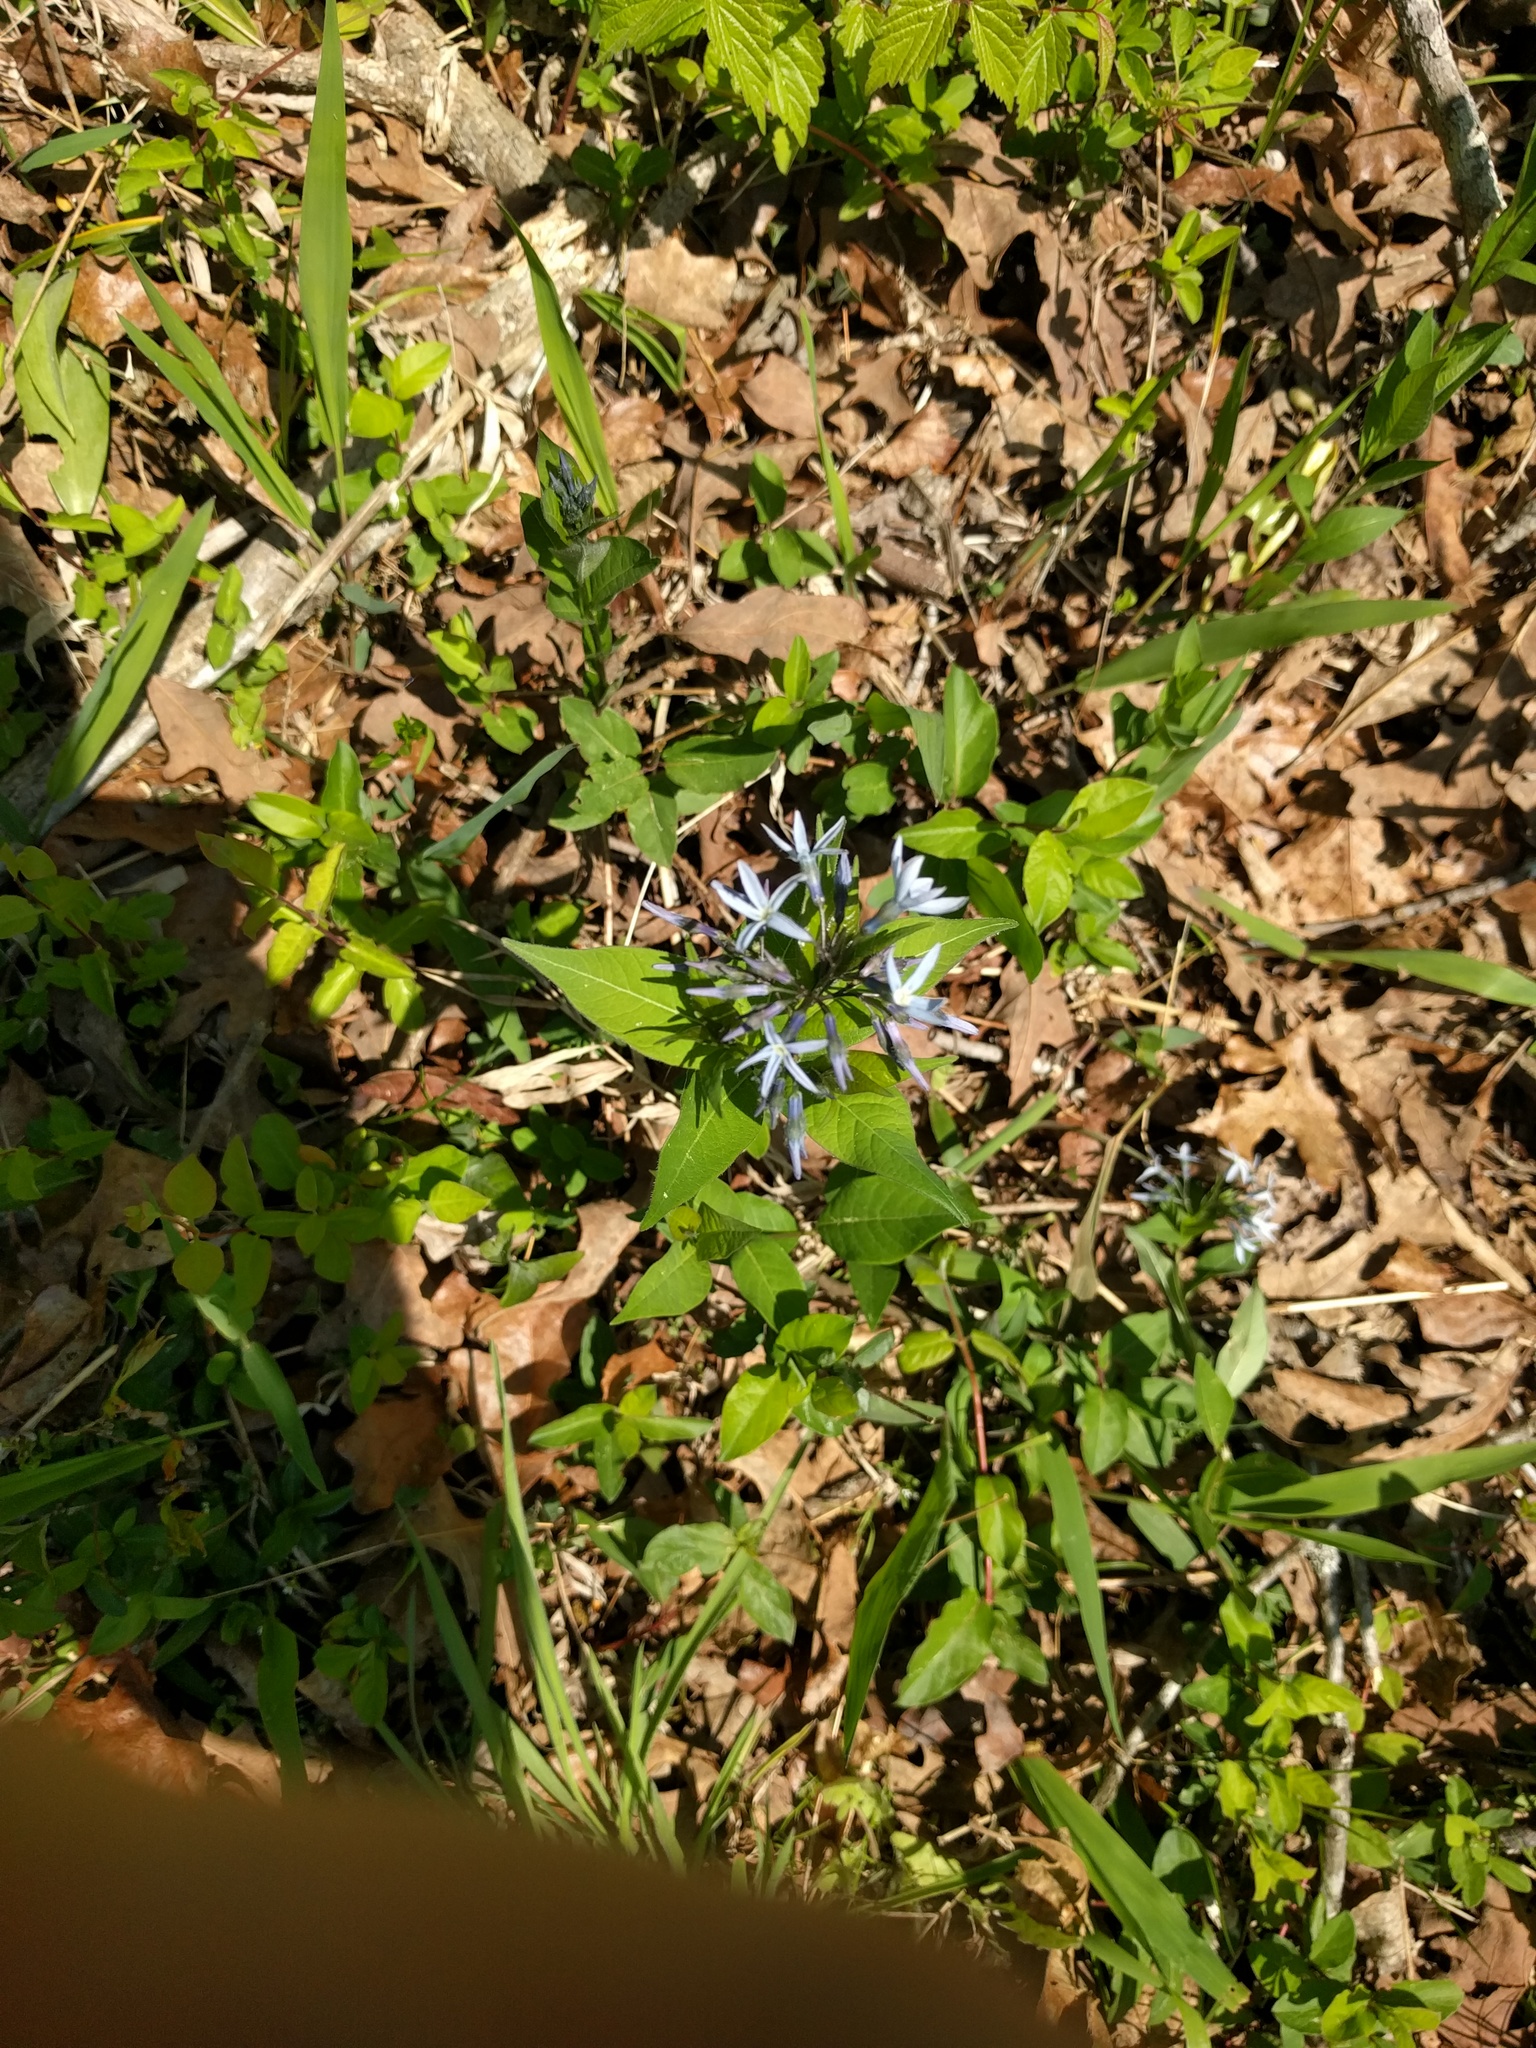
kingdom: Plantae
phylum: Tracheophyta
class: Magnoliopsida
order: Gentianales
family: Apocynaceae
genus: Amsonia
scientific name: Amsonia tabernaemontana
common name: Texas-star
